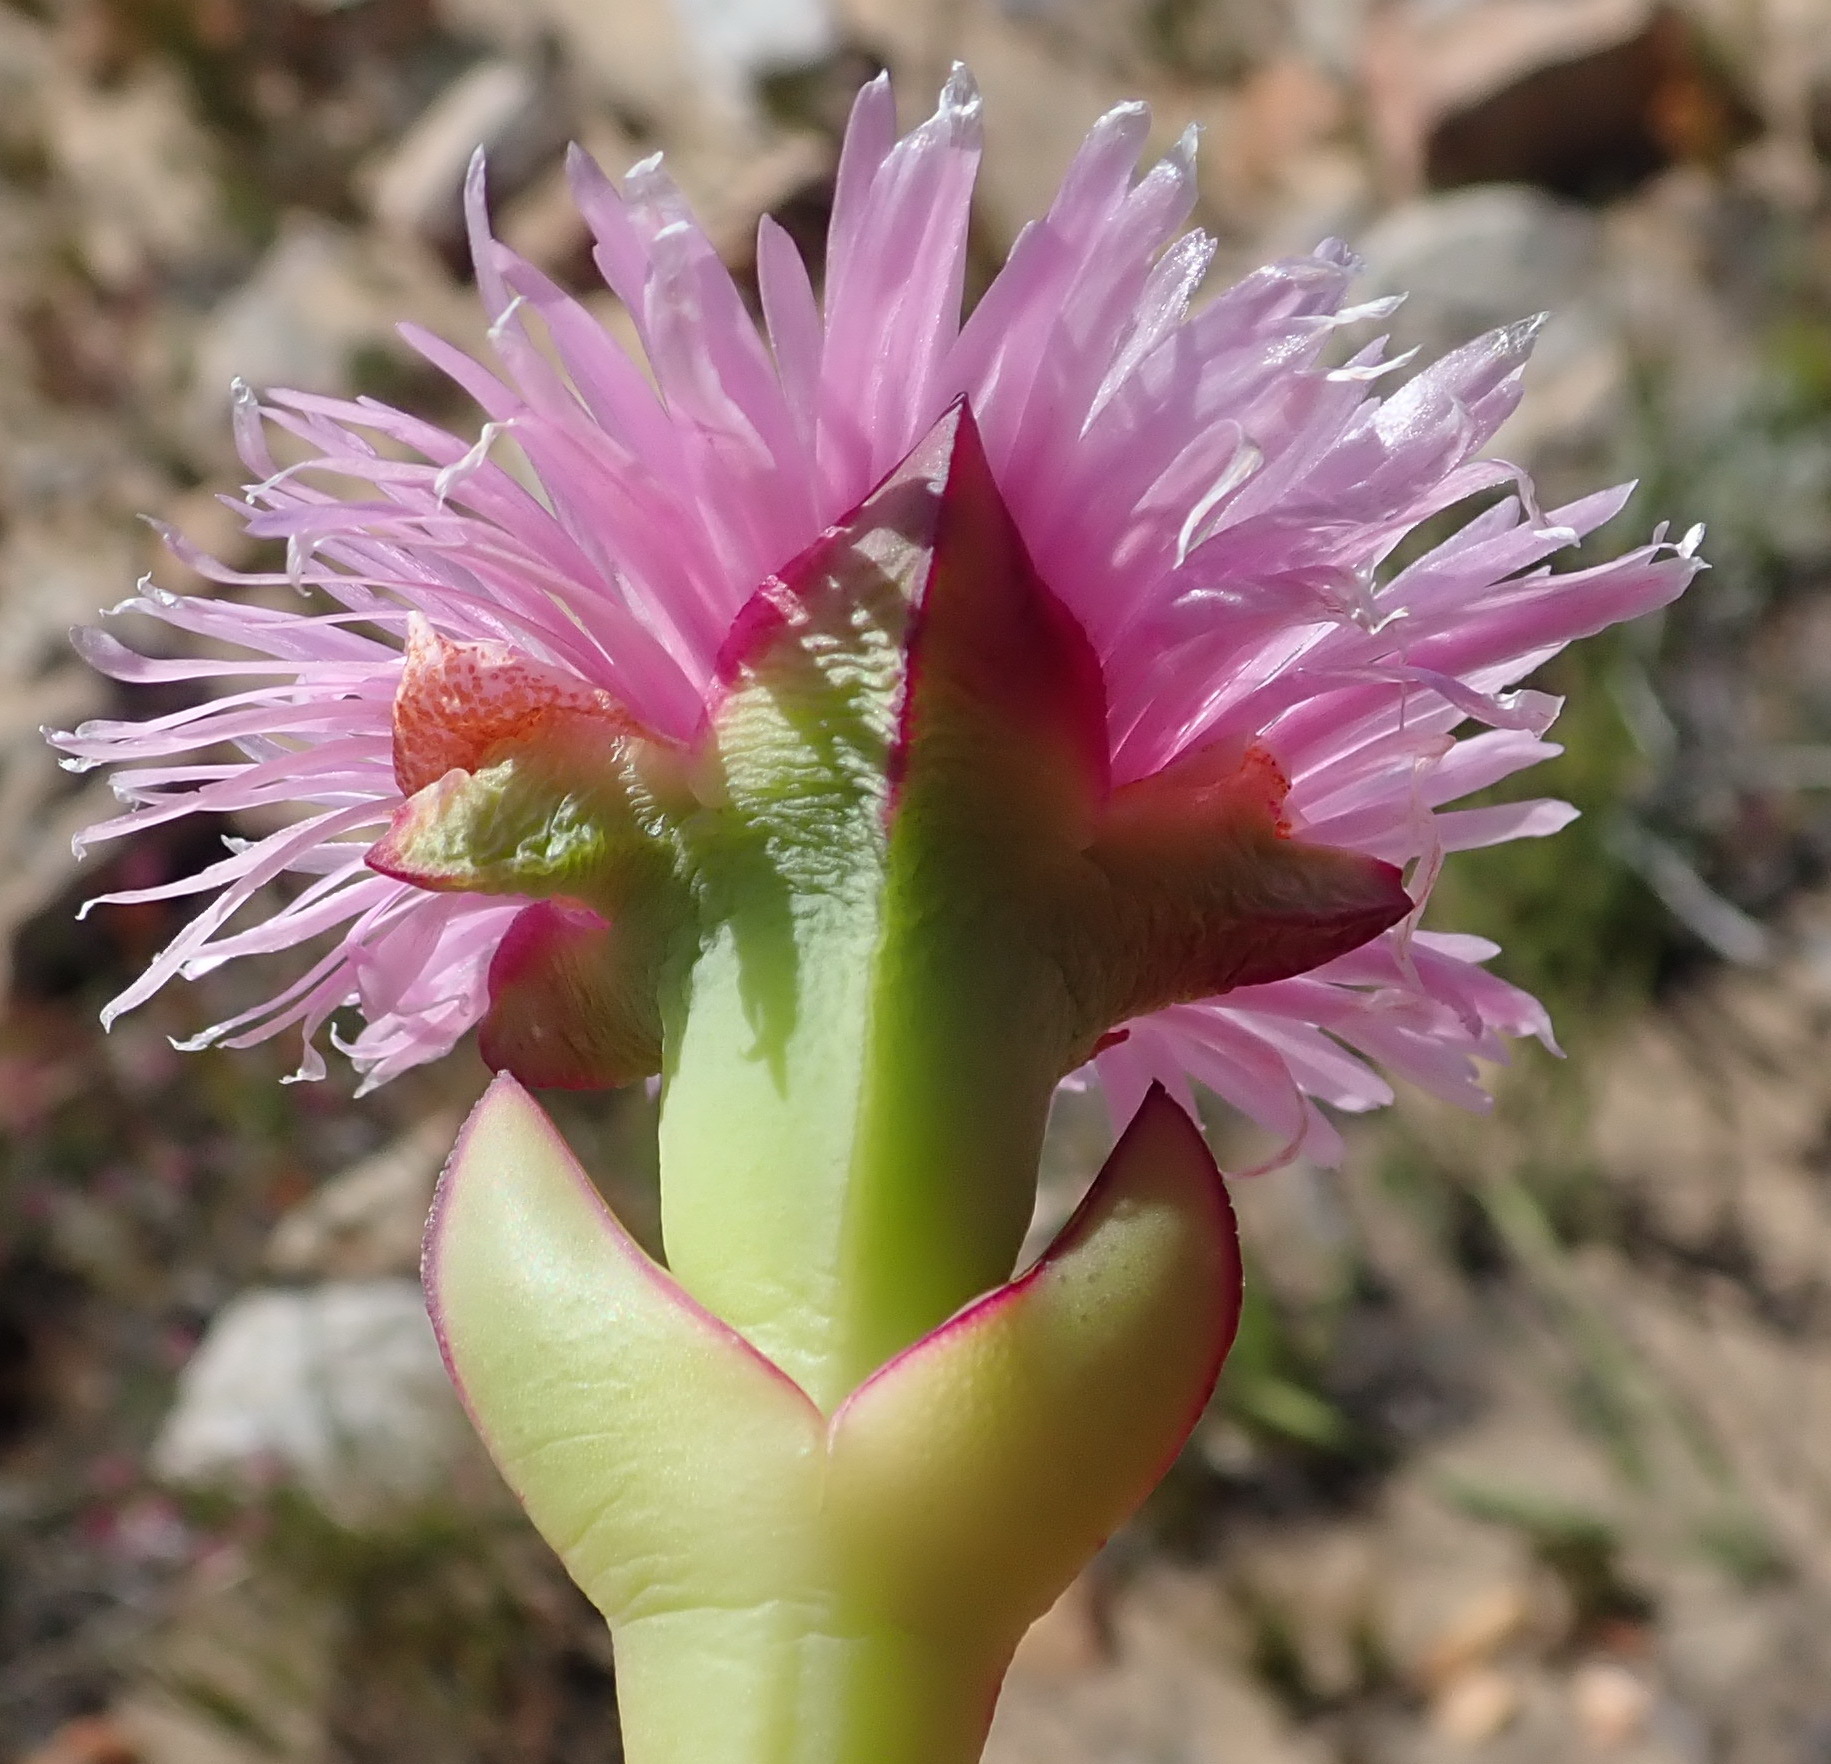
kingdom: Plantae
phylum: Tracheophyta
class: Magnoliopsida
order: Caryophyllales
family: Aizoaceae
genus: Carpobrotus
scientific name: Carpobrotus mellei
